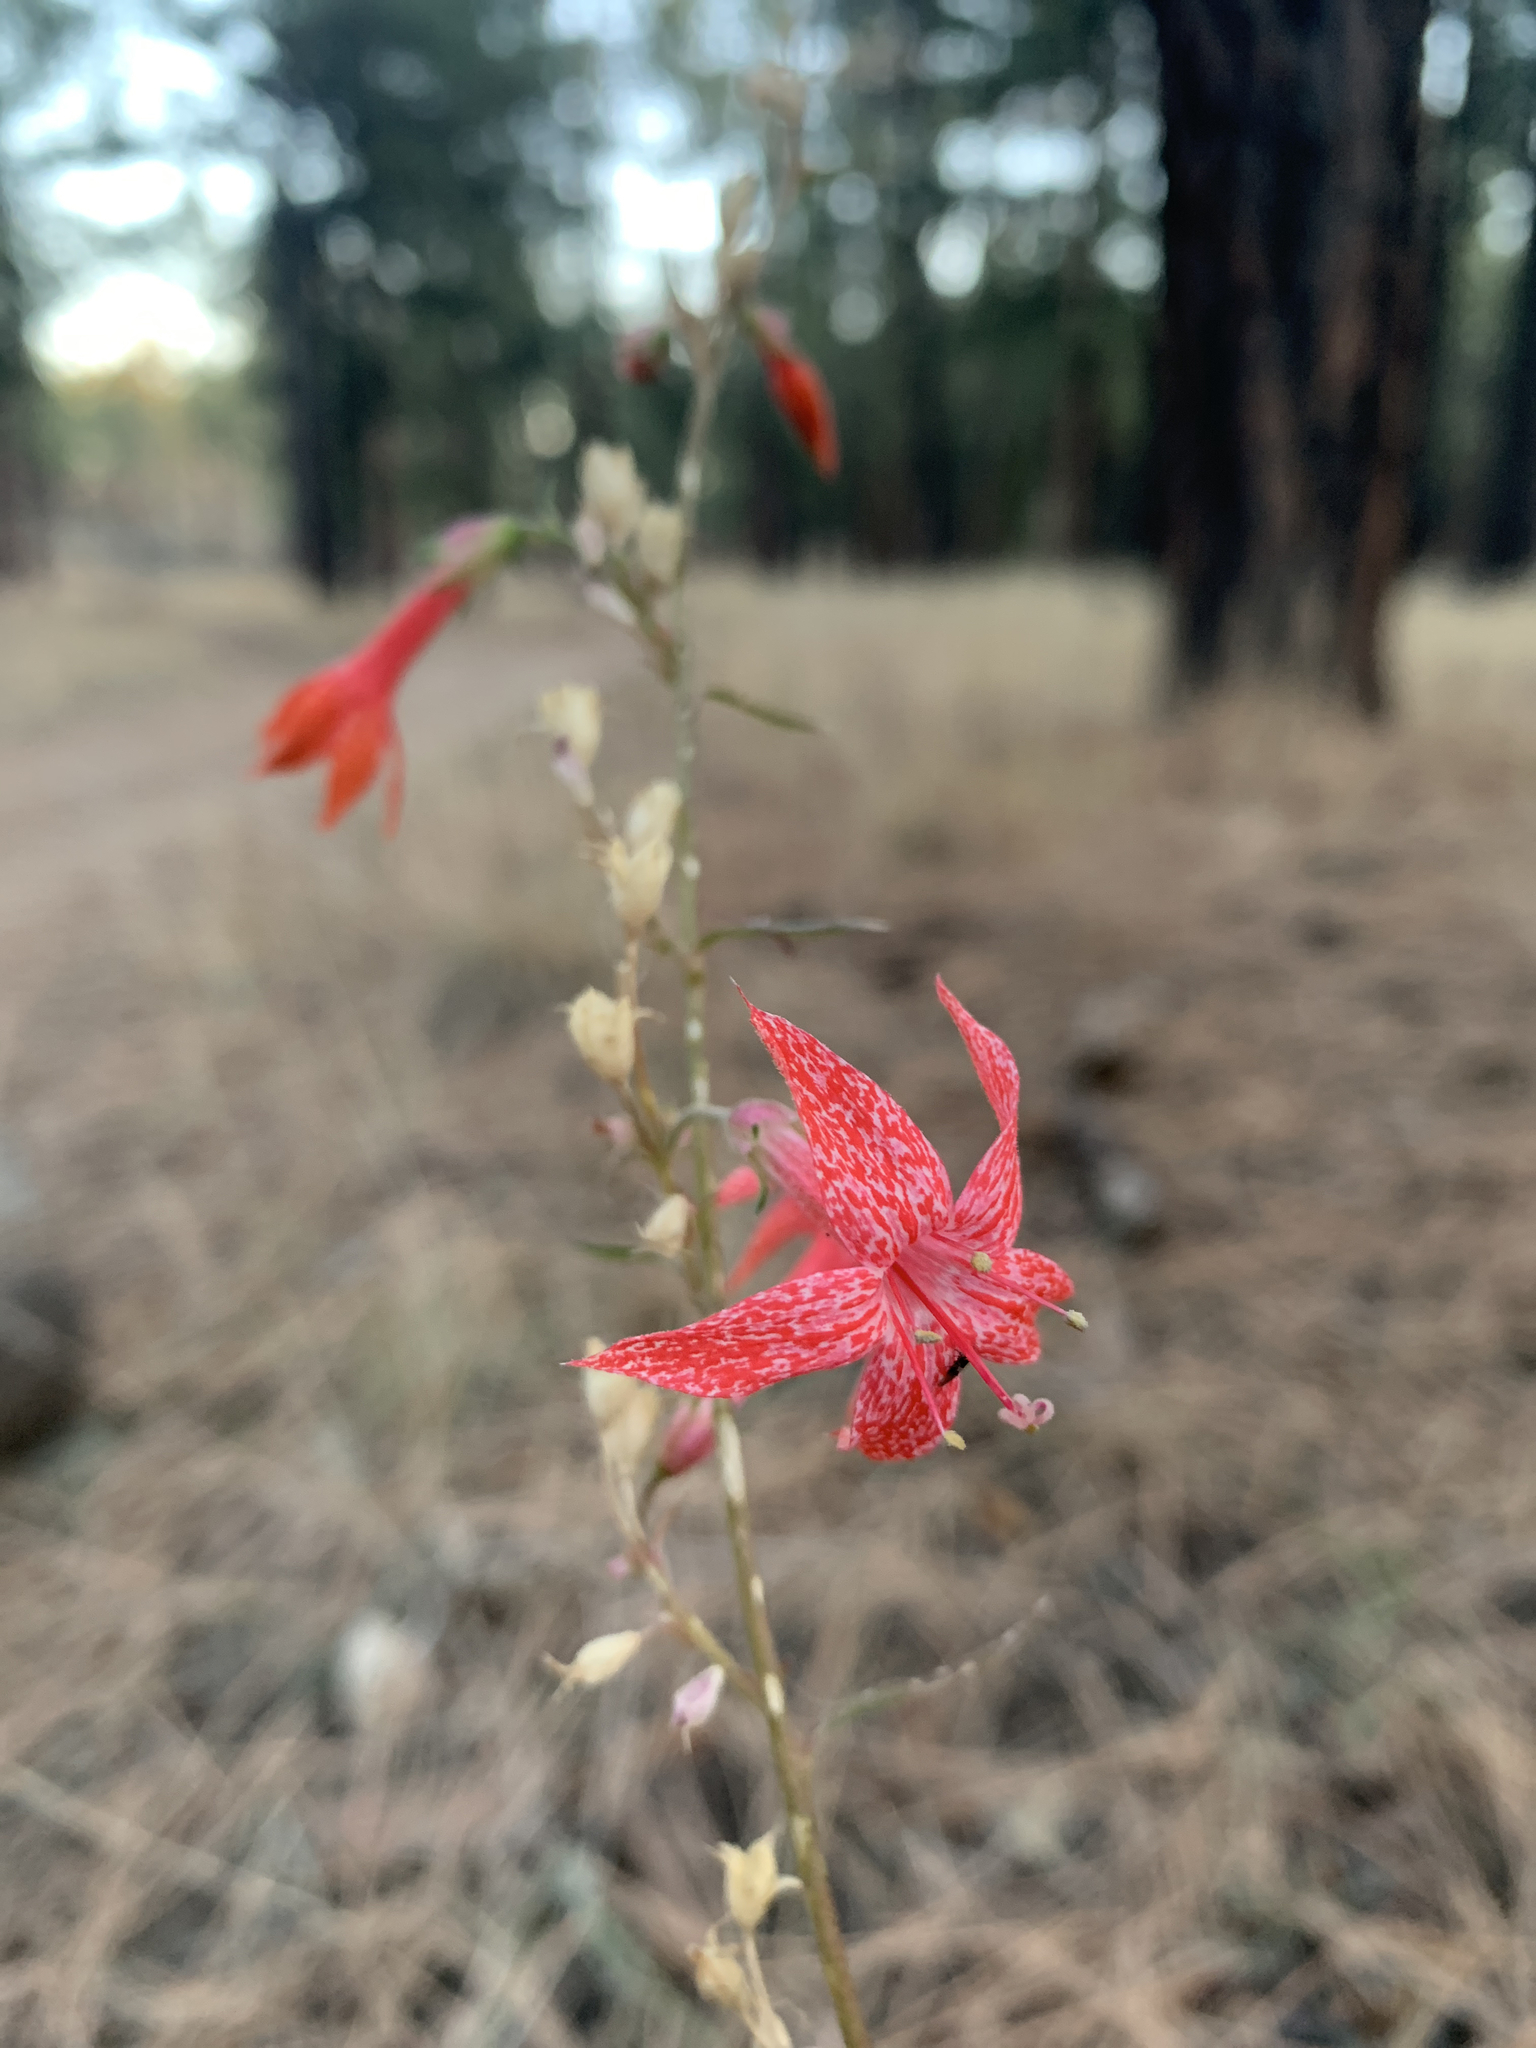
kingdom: Plantae
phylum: Tracheophyta
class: Magnoliopsida
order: Ericales
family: Polemoniaceae
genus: Ipomopsis
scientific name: Ipomopsis aggregata
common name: Scarlet gilia
